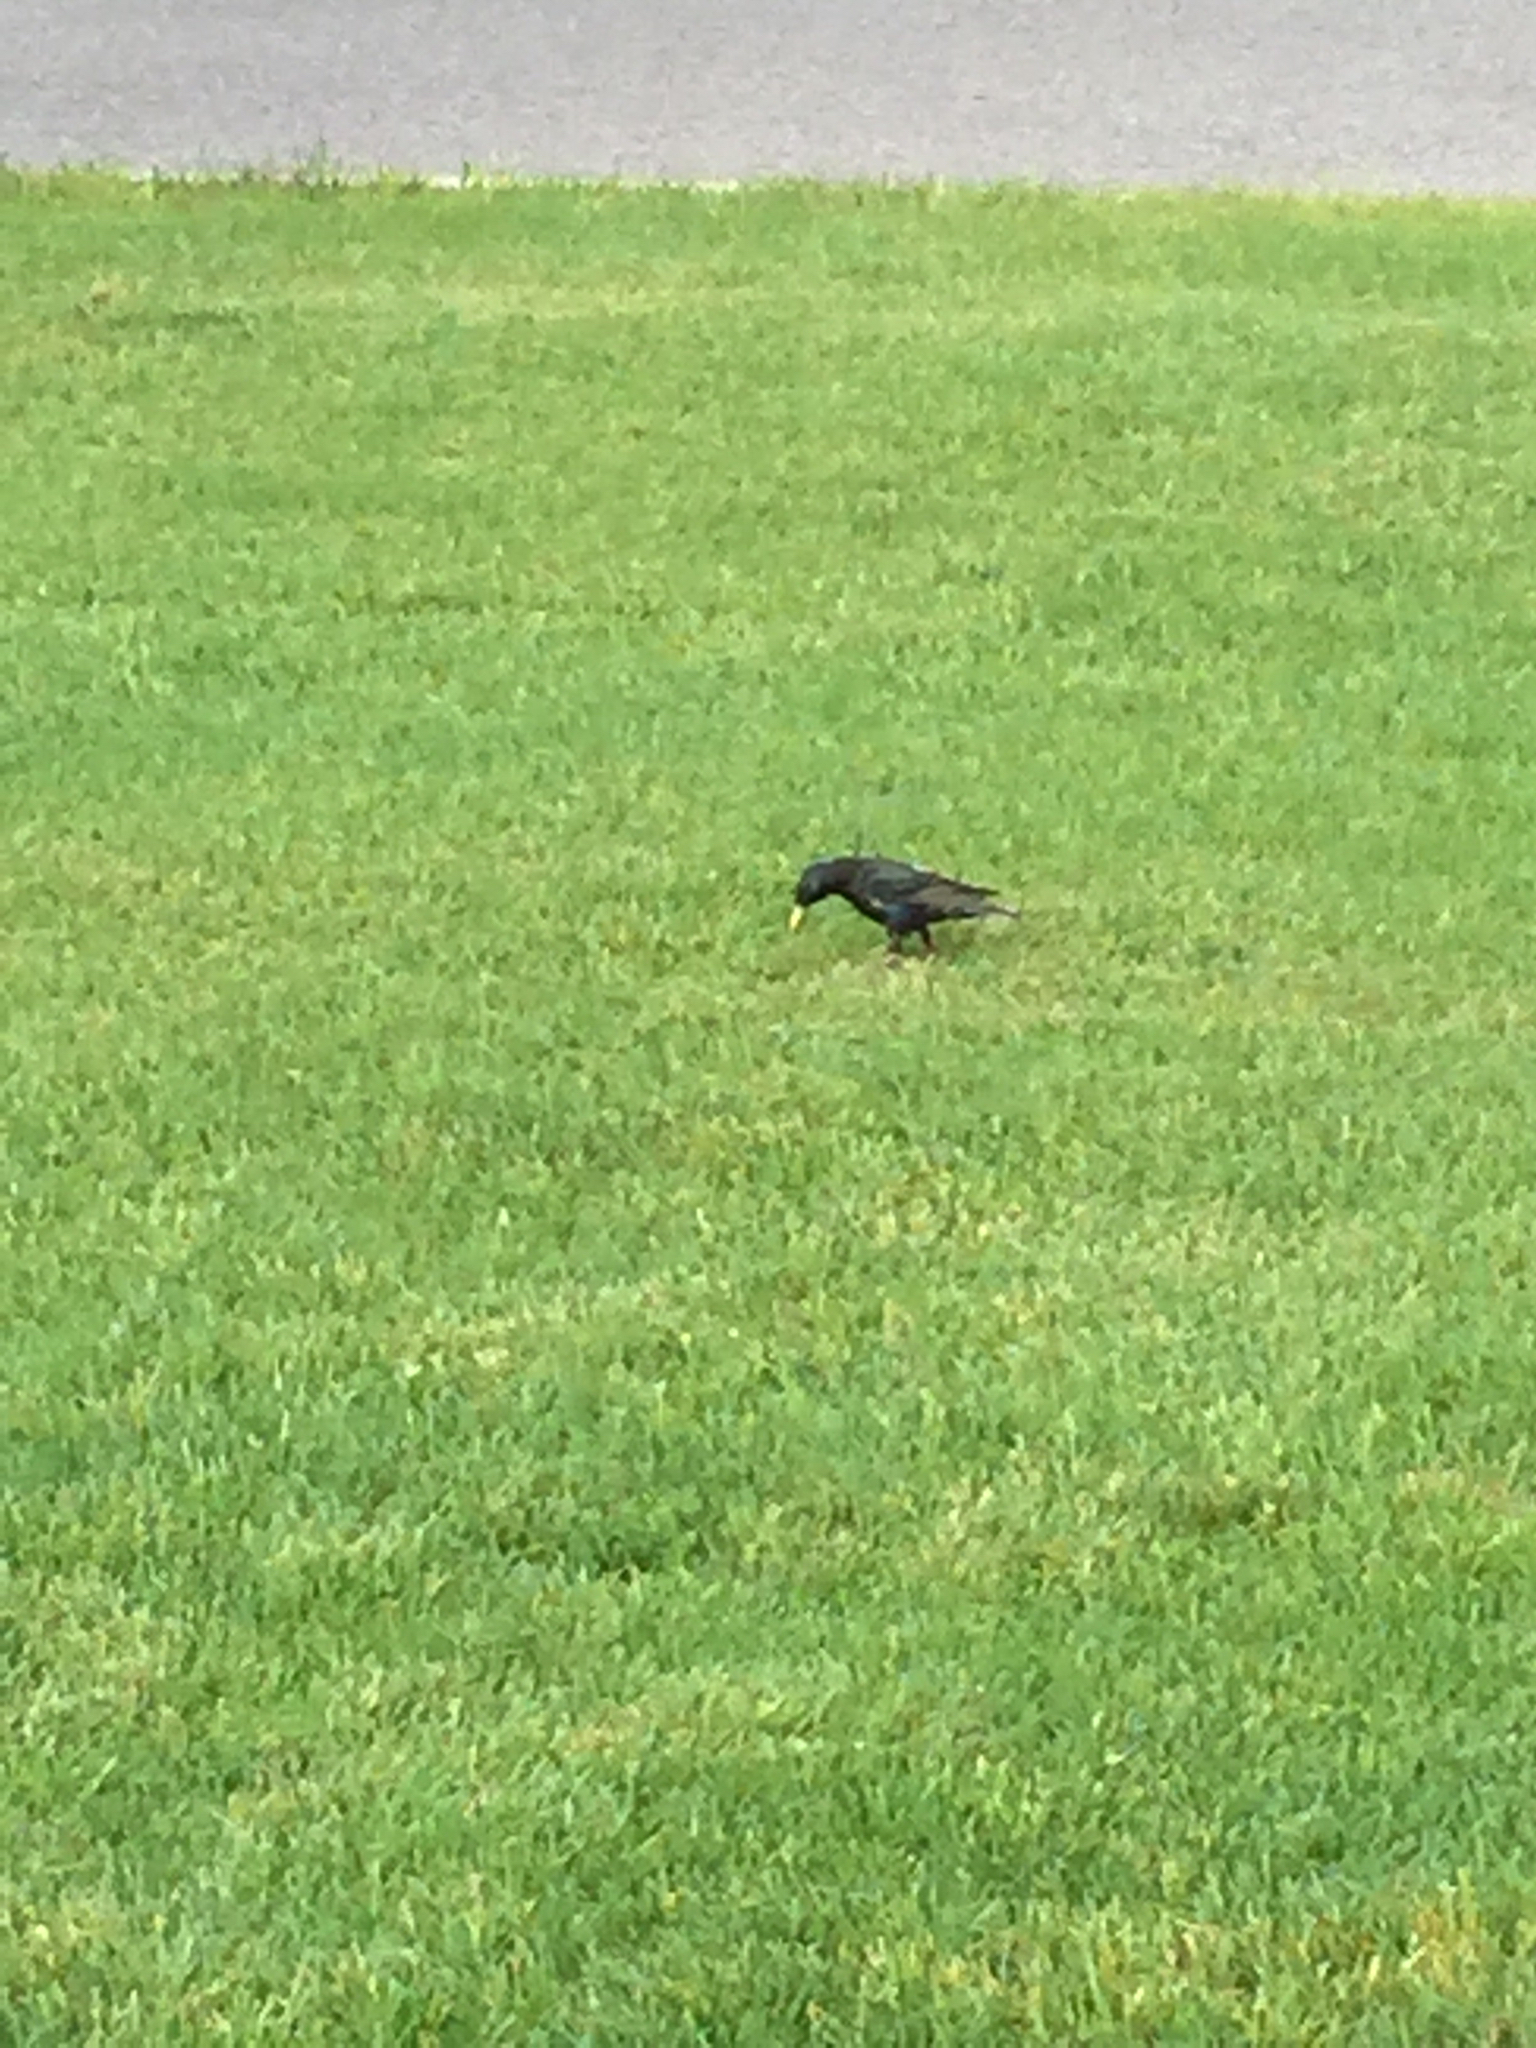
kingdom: Animalia
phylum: Chordata
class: Aves
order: Passeriformes
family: Sturnidae
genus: Sturnus
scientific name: Sturnus vulgaris
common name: Common starling
